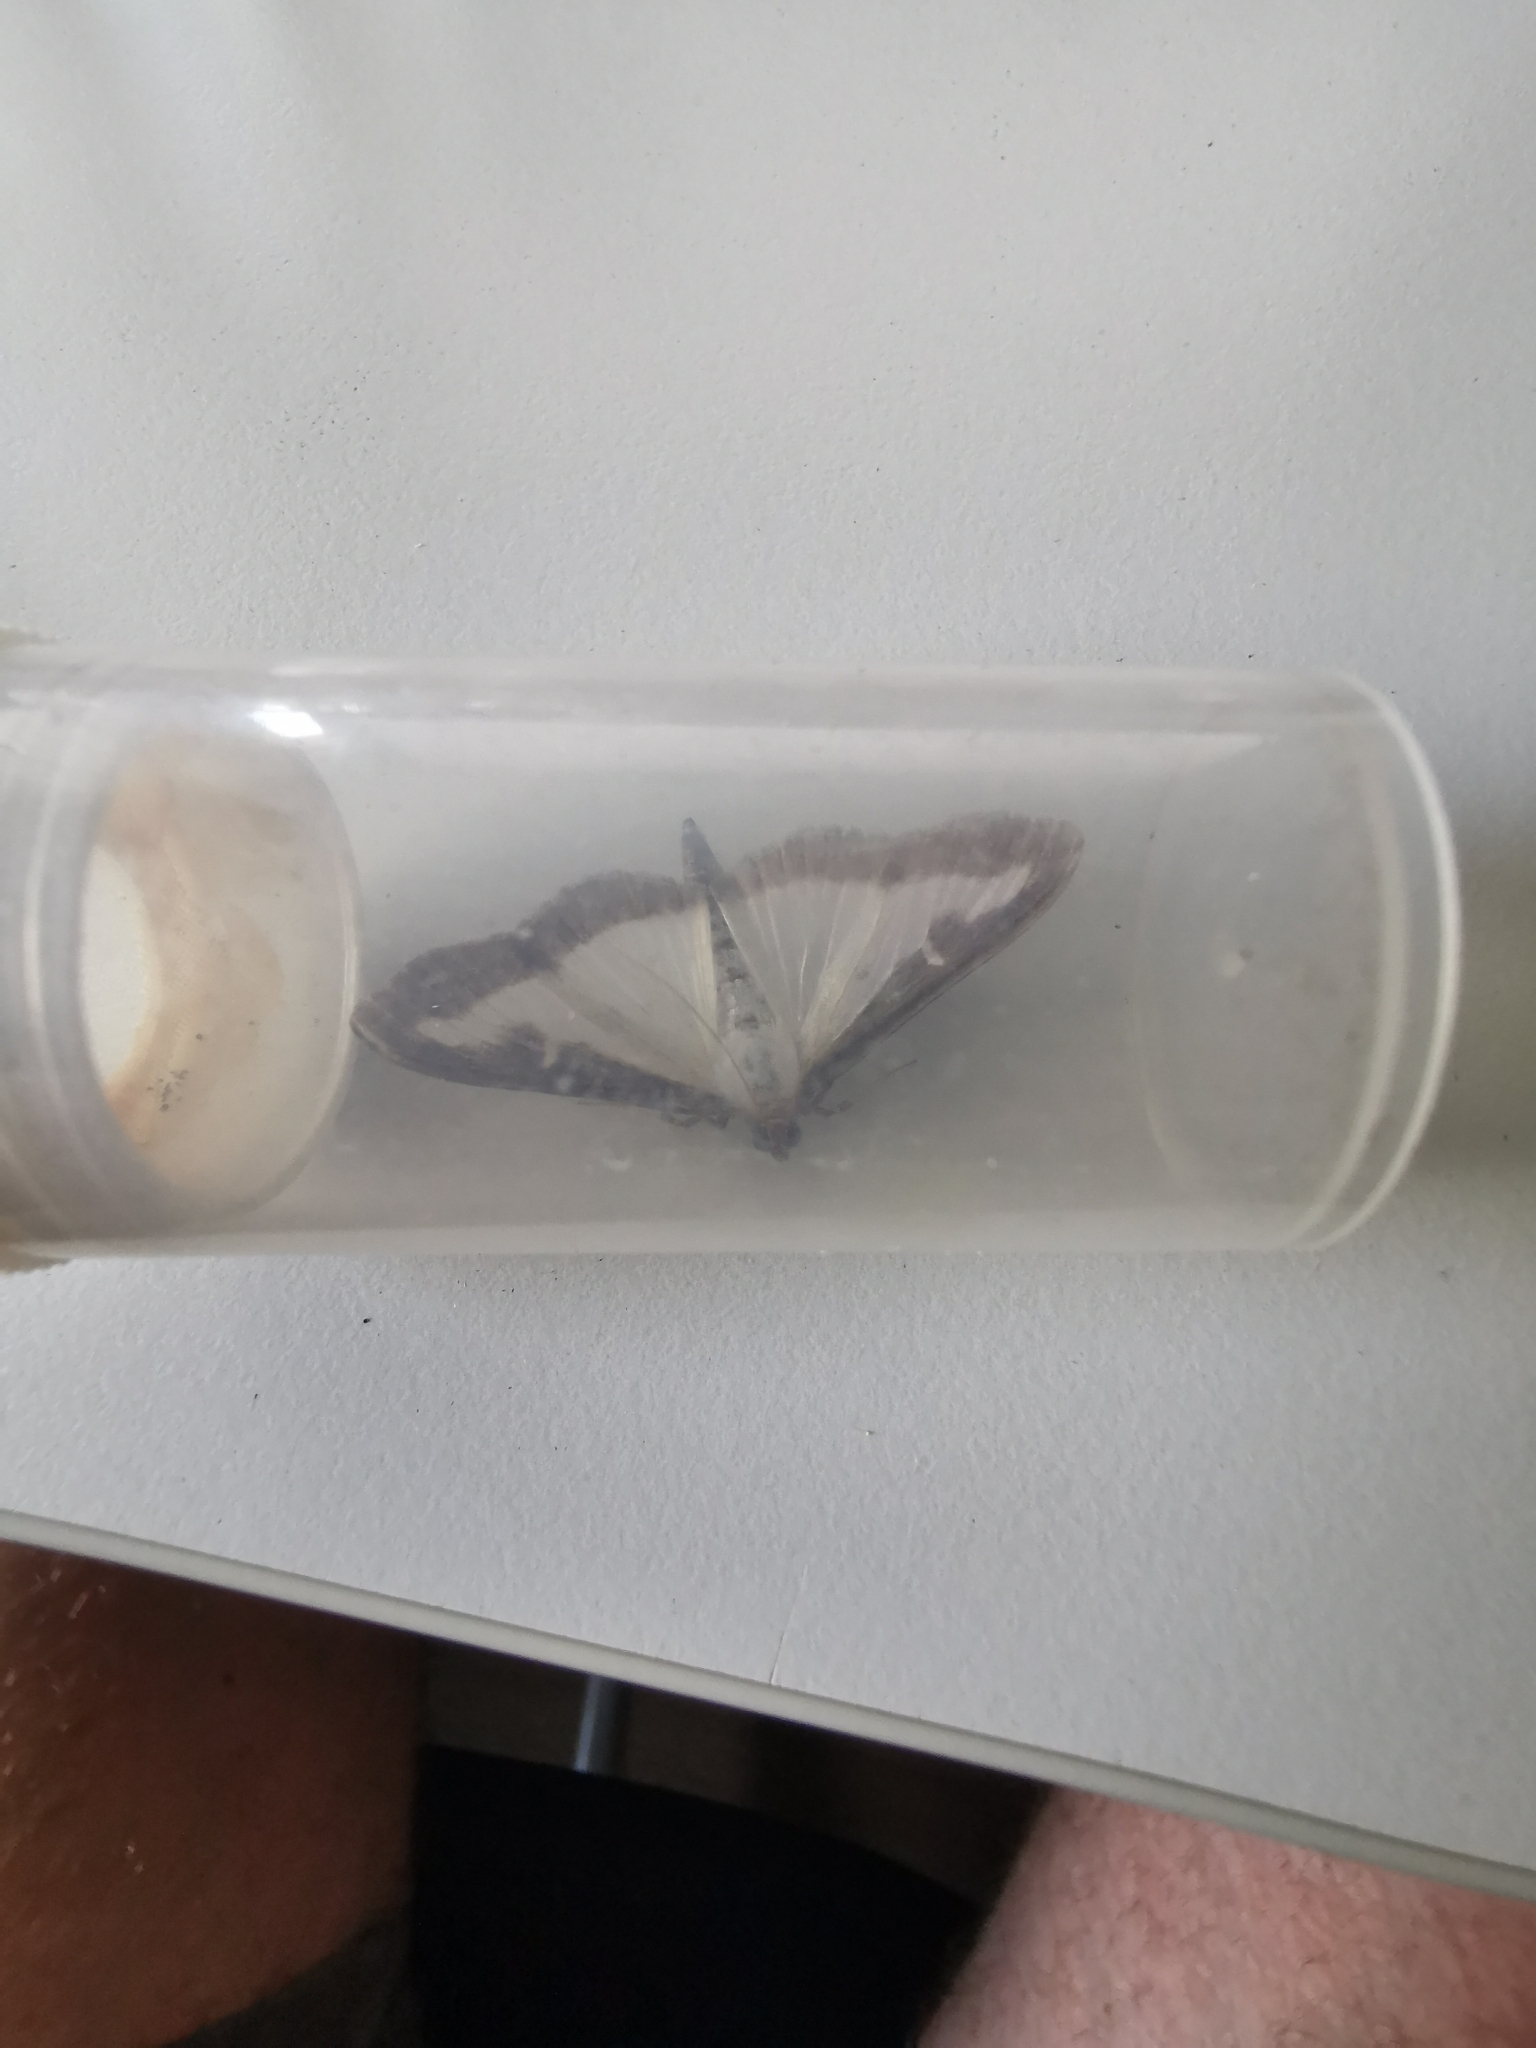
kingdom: Animalia
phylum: Arthropoda
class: Insecta
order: Lepidoptera
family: Crambidae
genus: Cydalima
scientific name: Cydalima perspectalis
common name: Box tree moth
